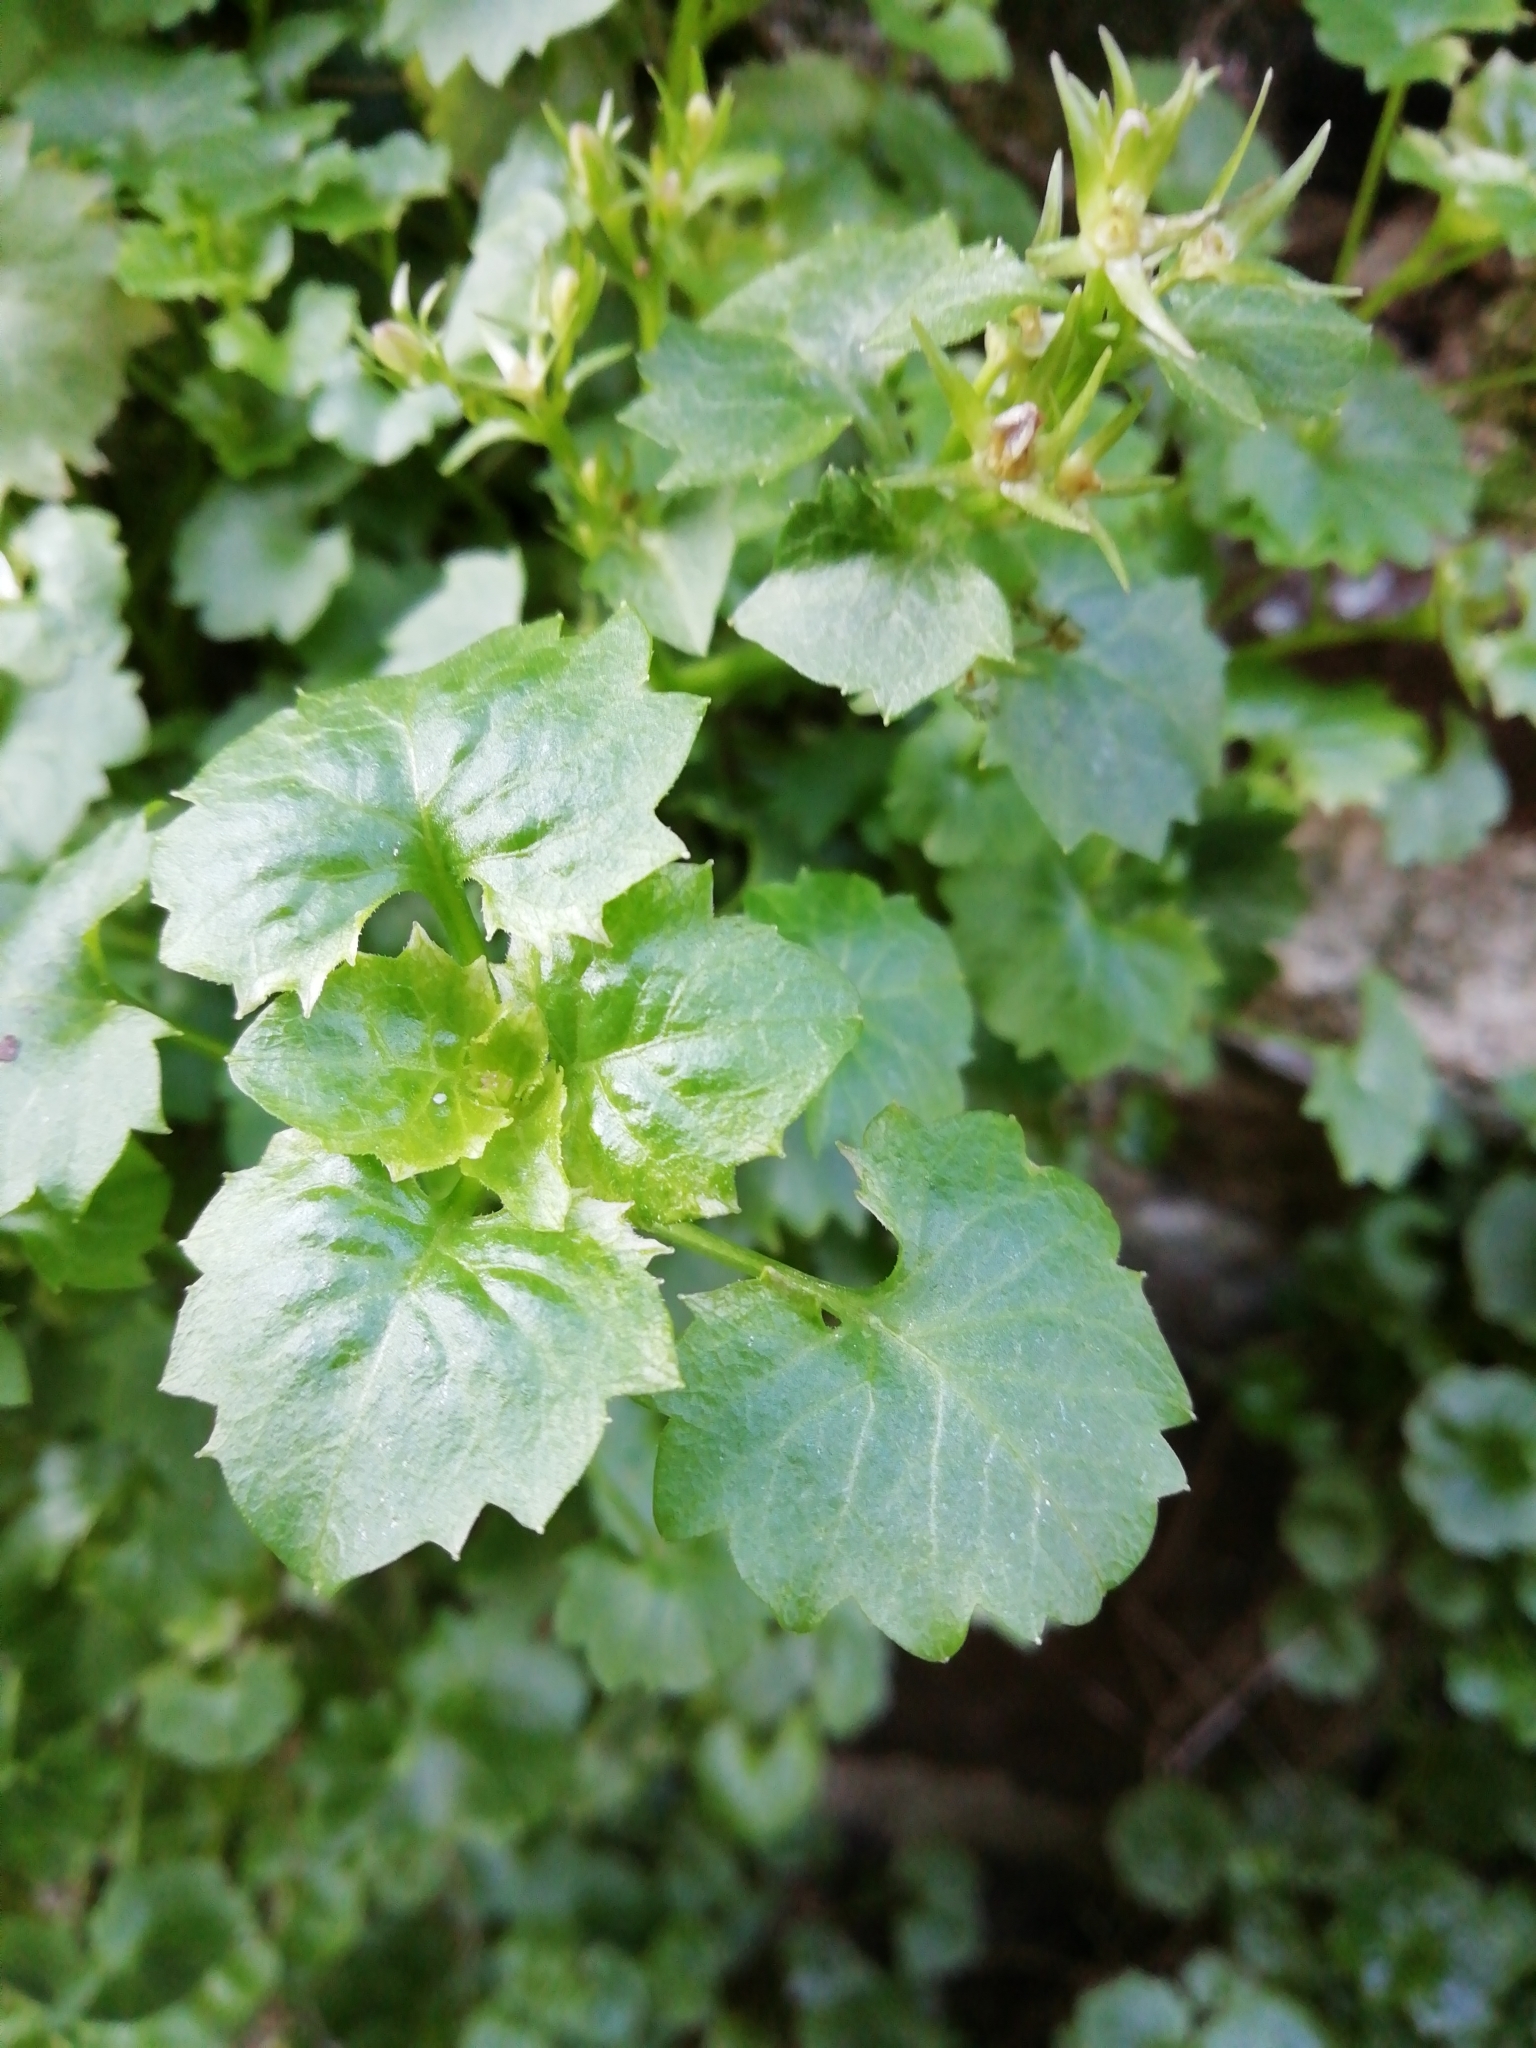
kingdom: Plantae
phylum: Tracheophyta
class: Magnoliopsida
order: Asterales
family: Campanulaceae
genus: Campanula
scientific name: Campanula portenschlagiana
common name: Adria bellflower
